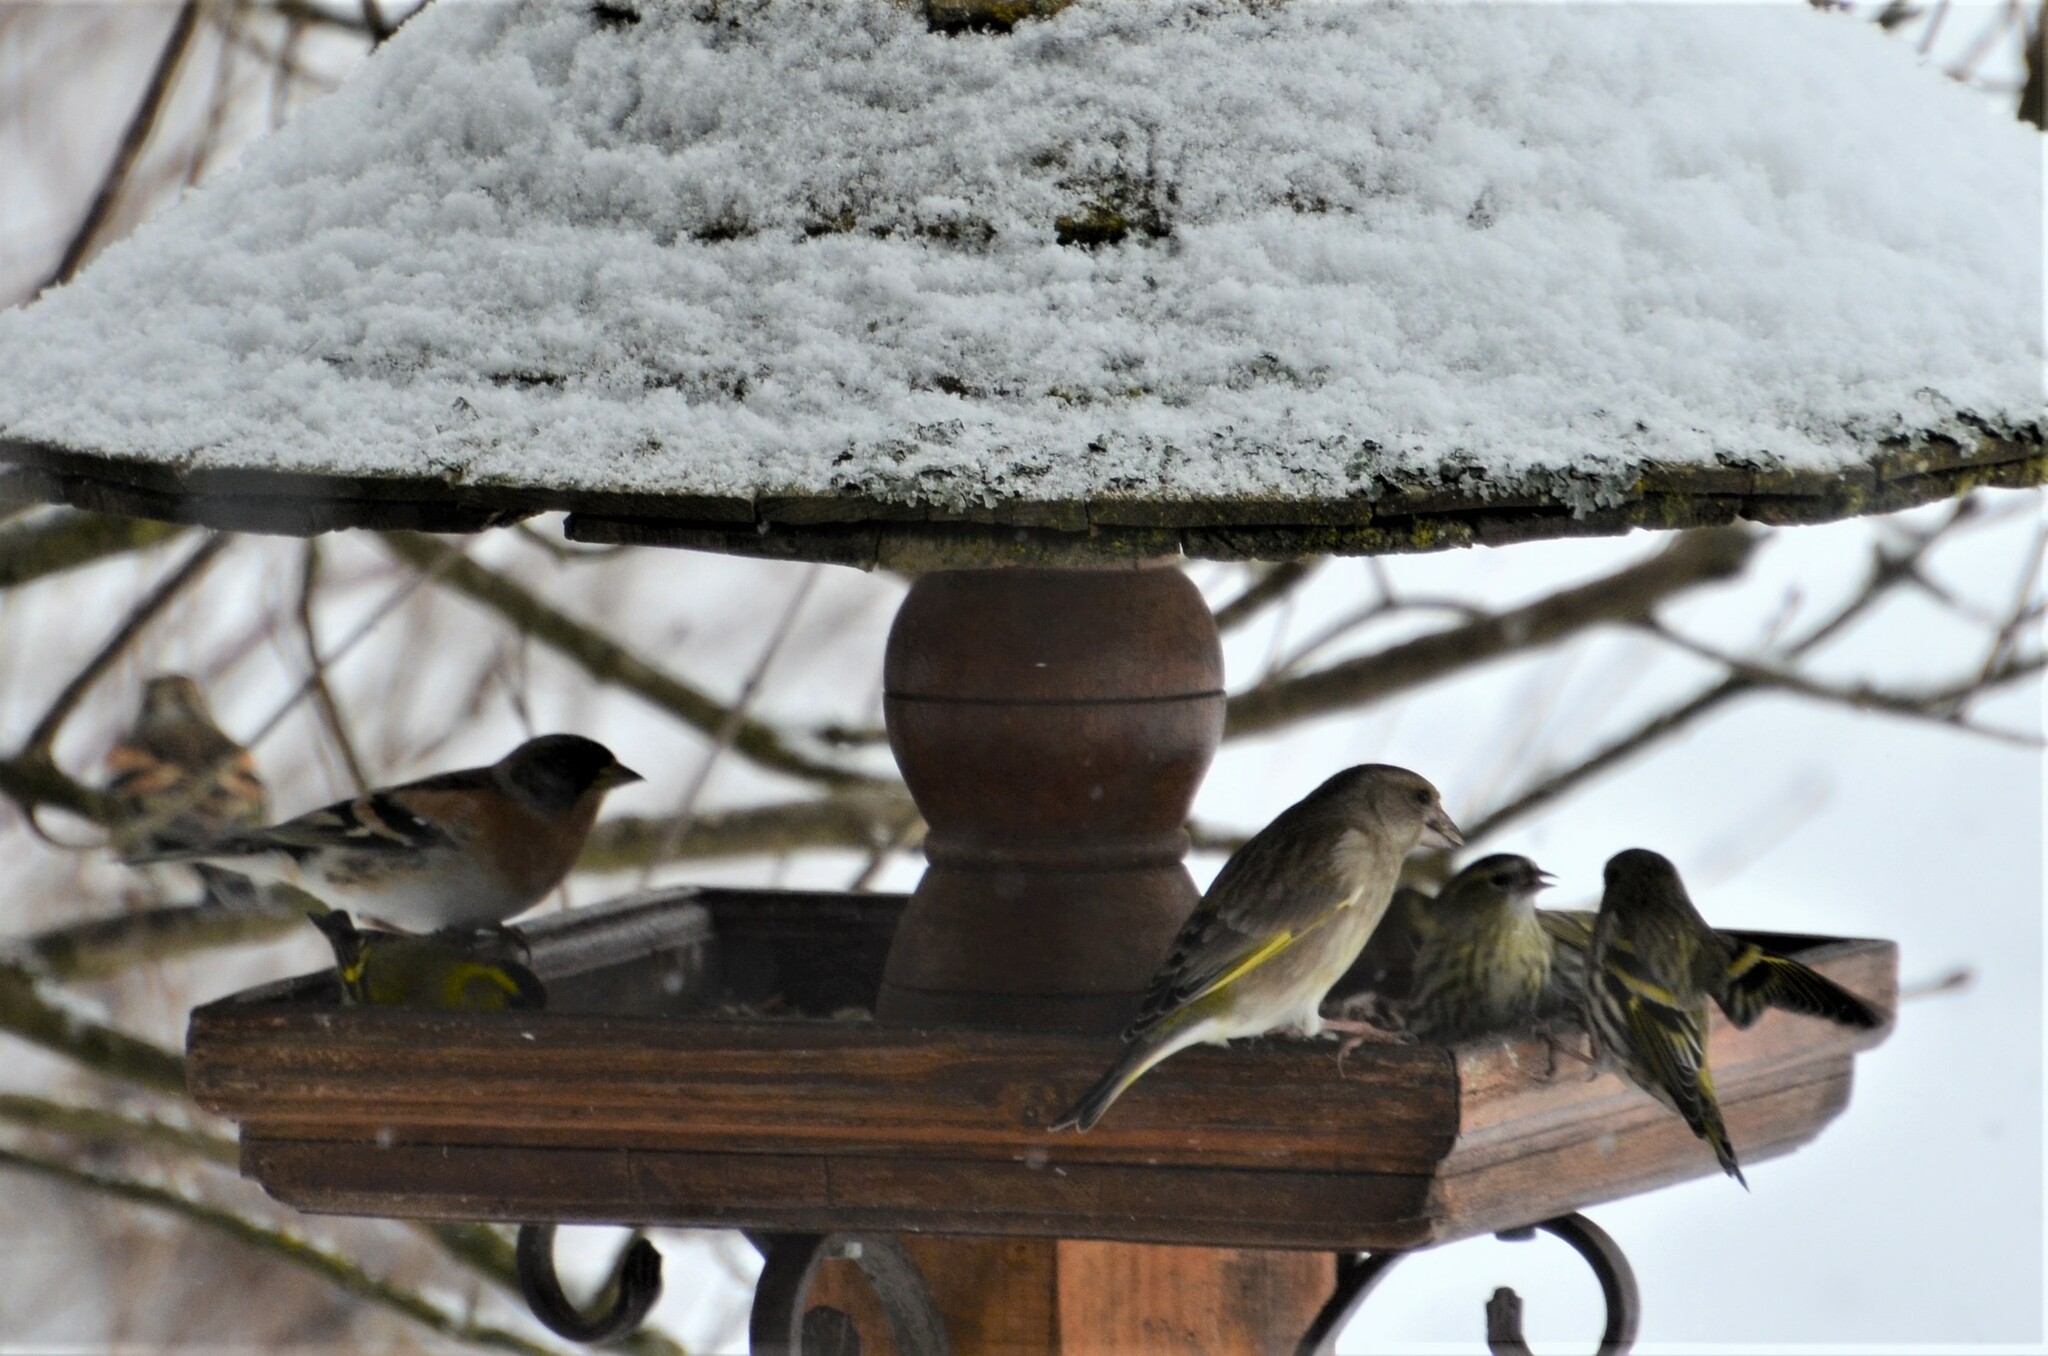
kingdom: Plantae
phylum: Tracheophyta
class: Liliopsida
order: Poales
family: Poaceae
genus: Chloris
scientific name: Chloris chloris
